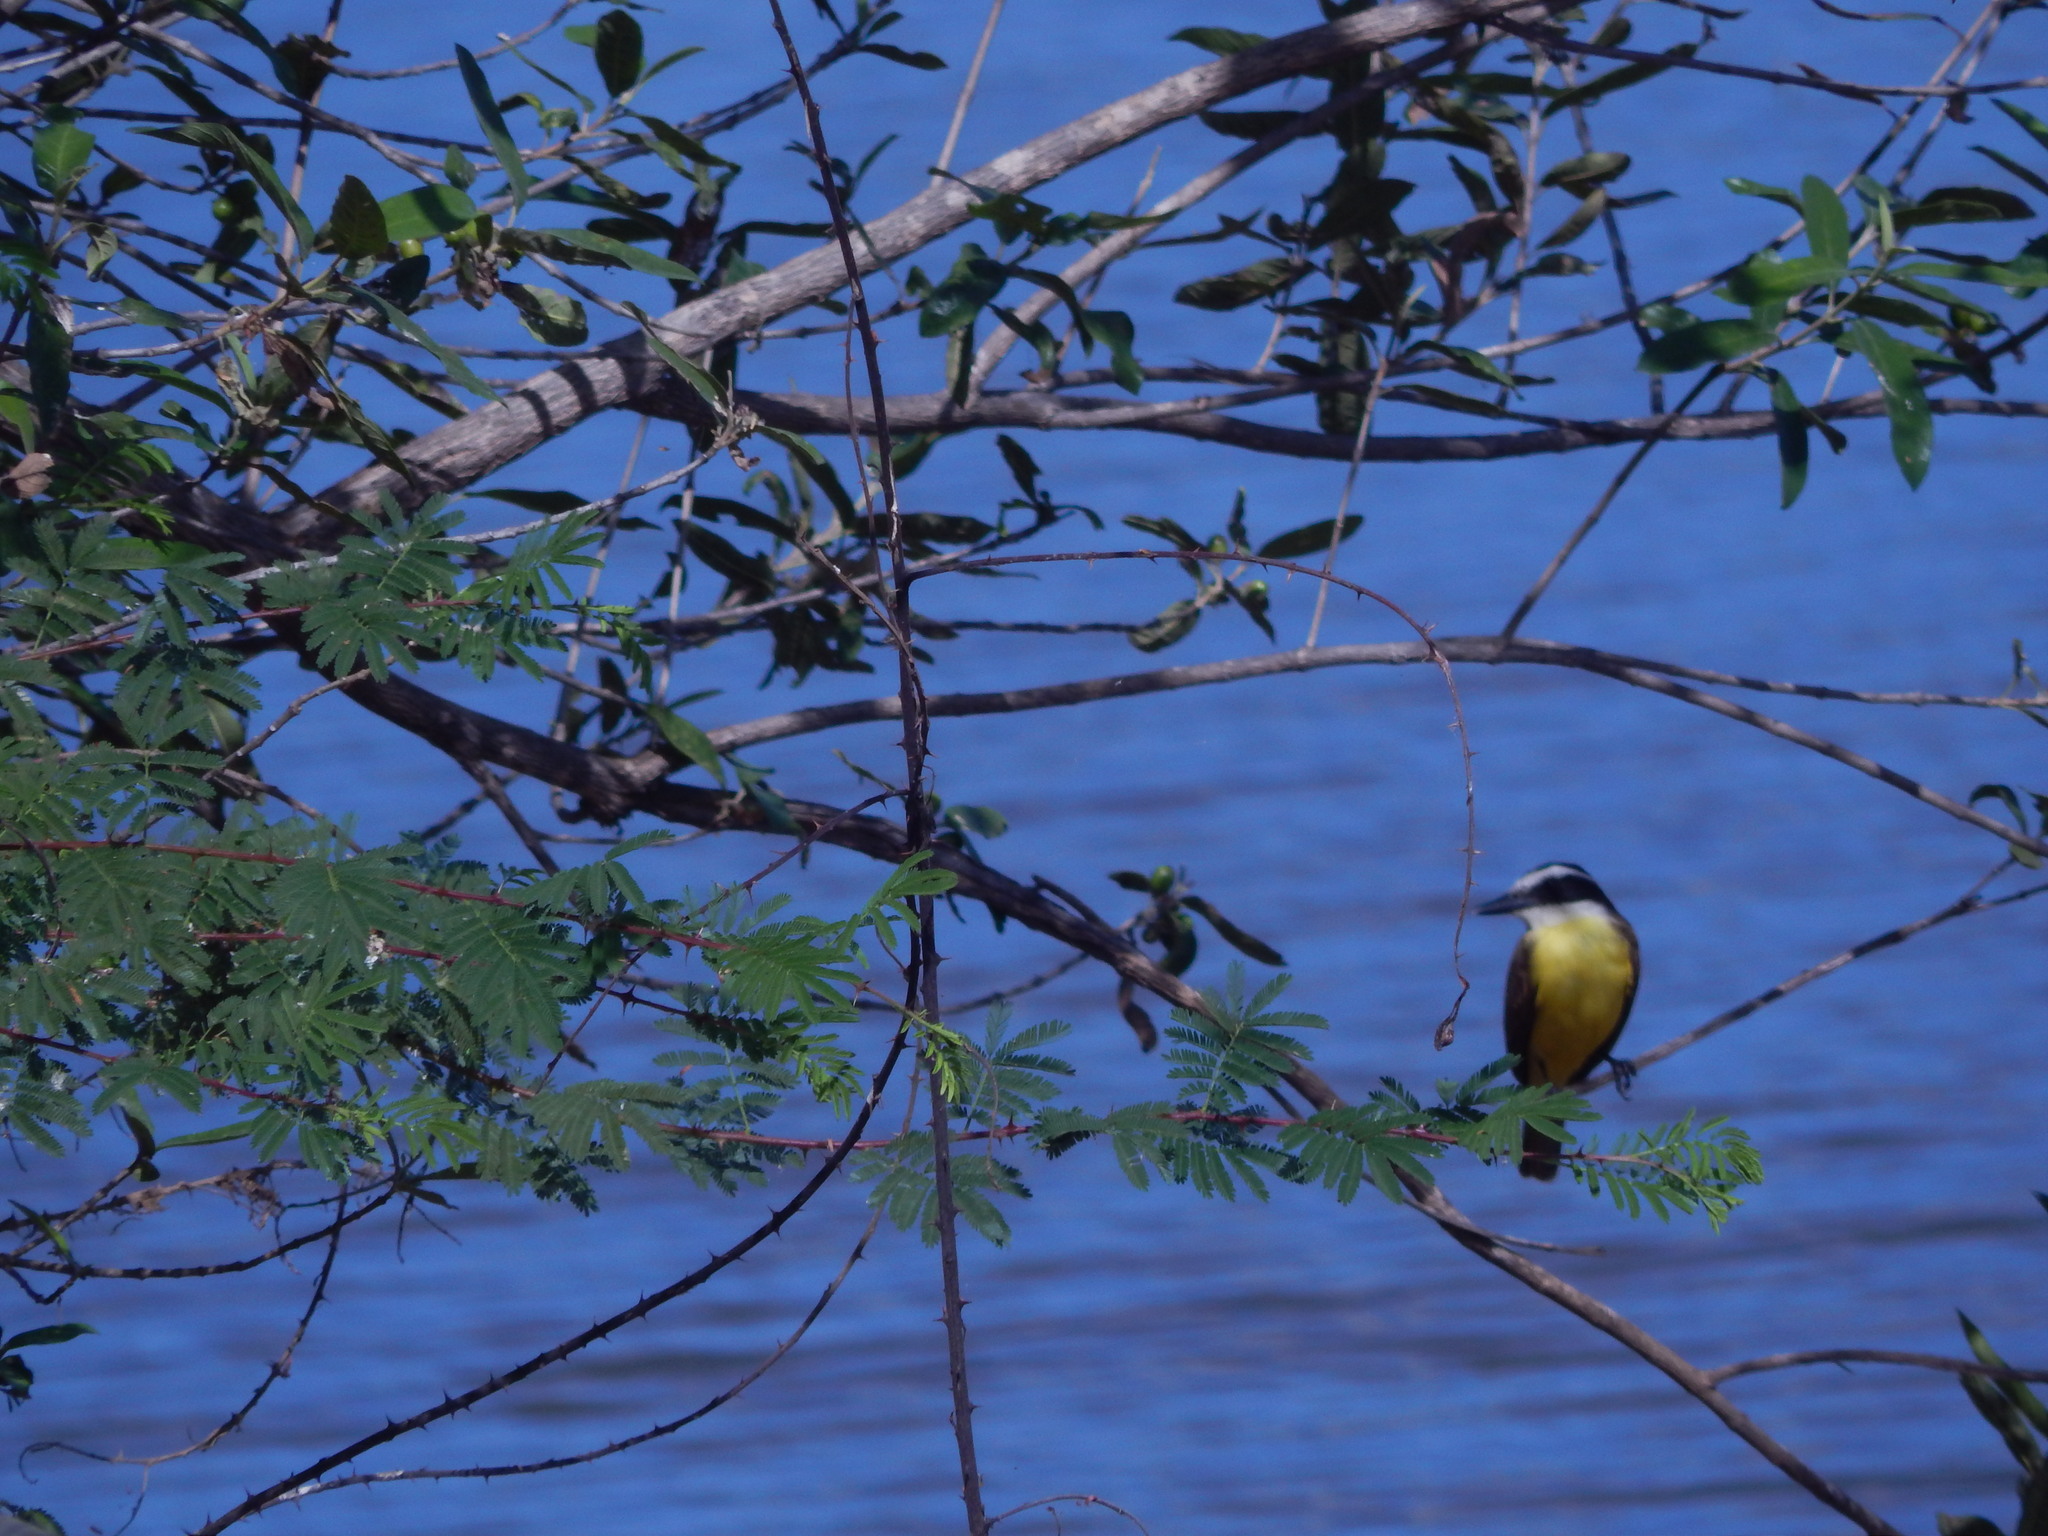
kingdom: Animalia
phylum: Chordata
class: Aves
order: Passeriformes
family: Tyrannidae
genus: Pitangus
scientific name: Pitangus sulphuratus
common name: Great kiskadee
